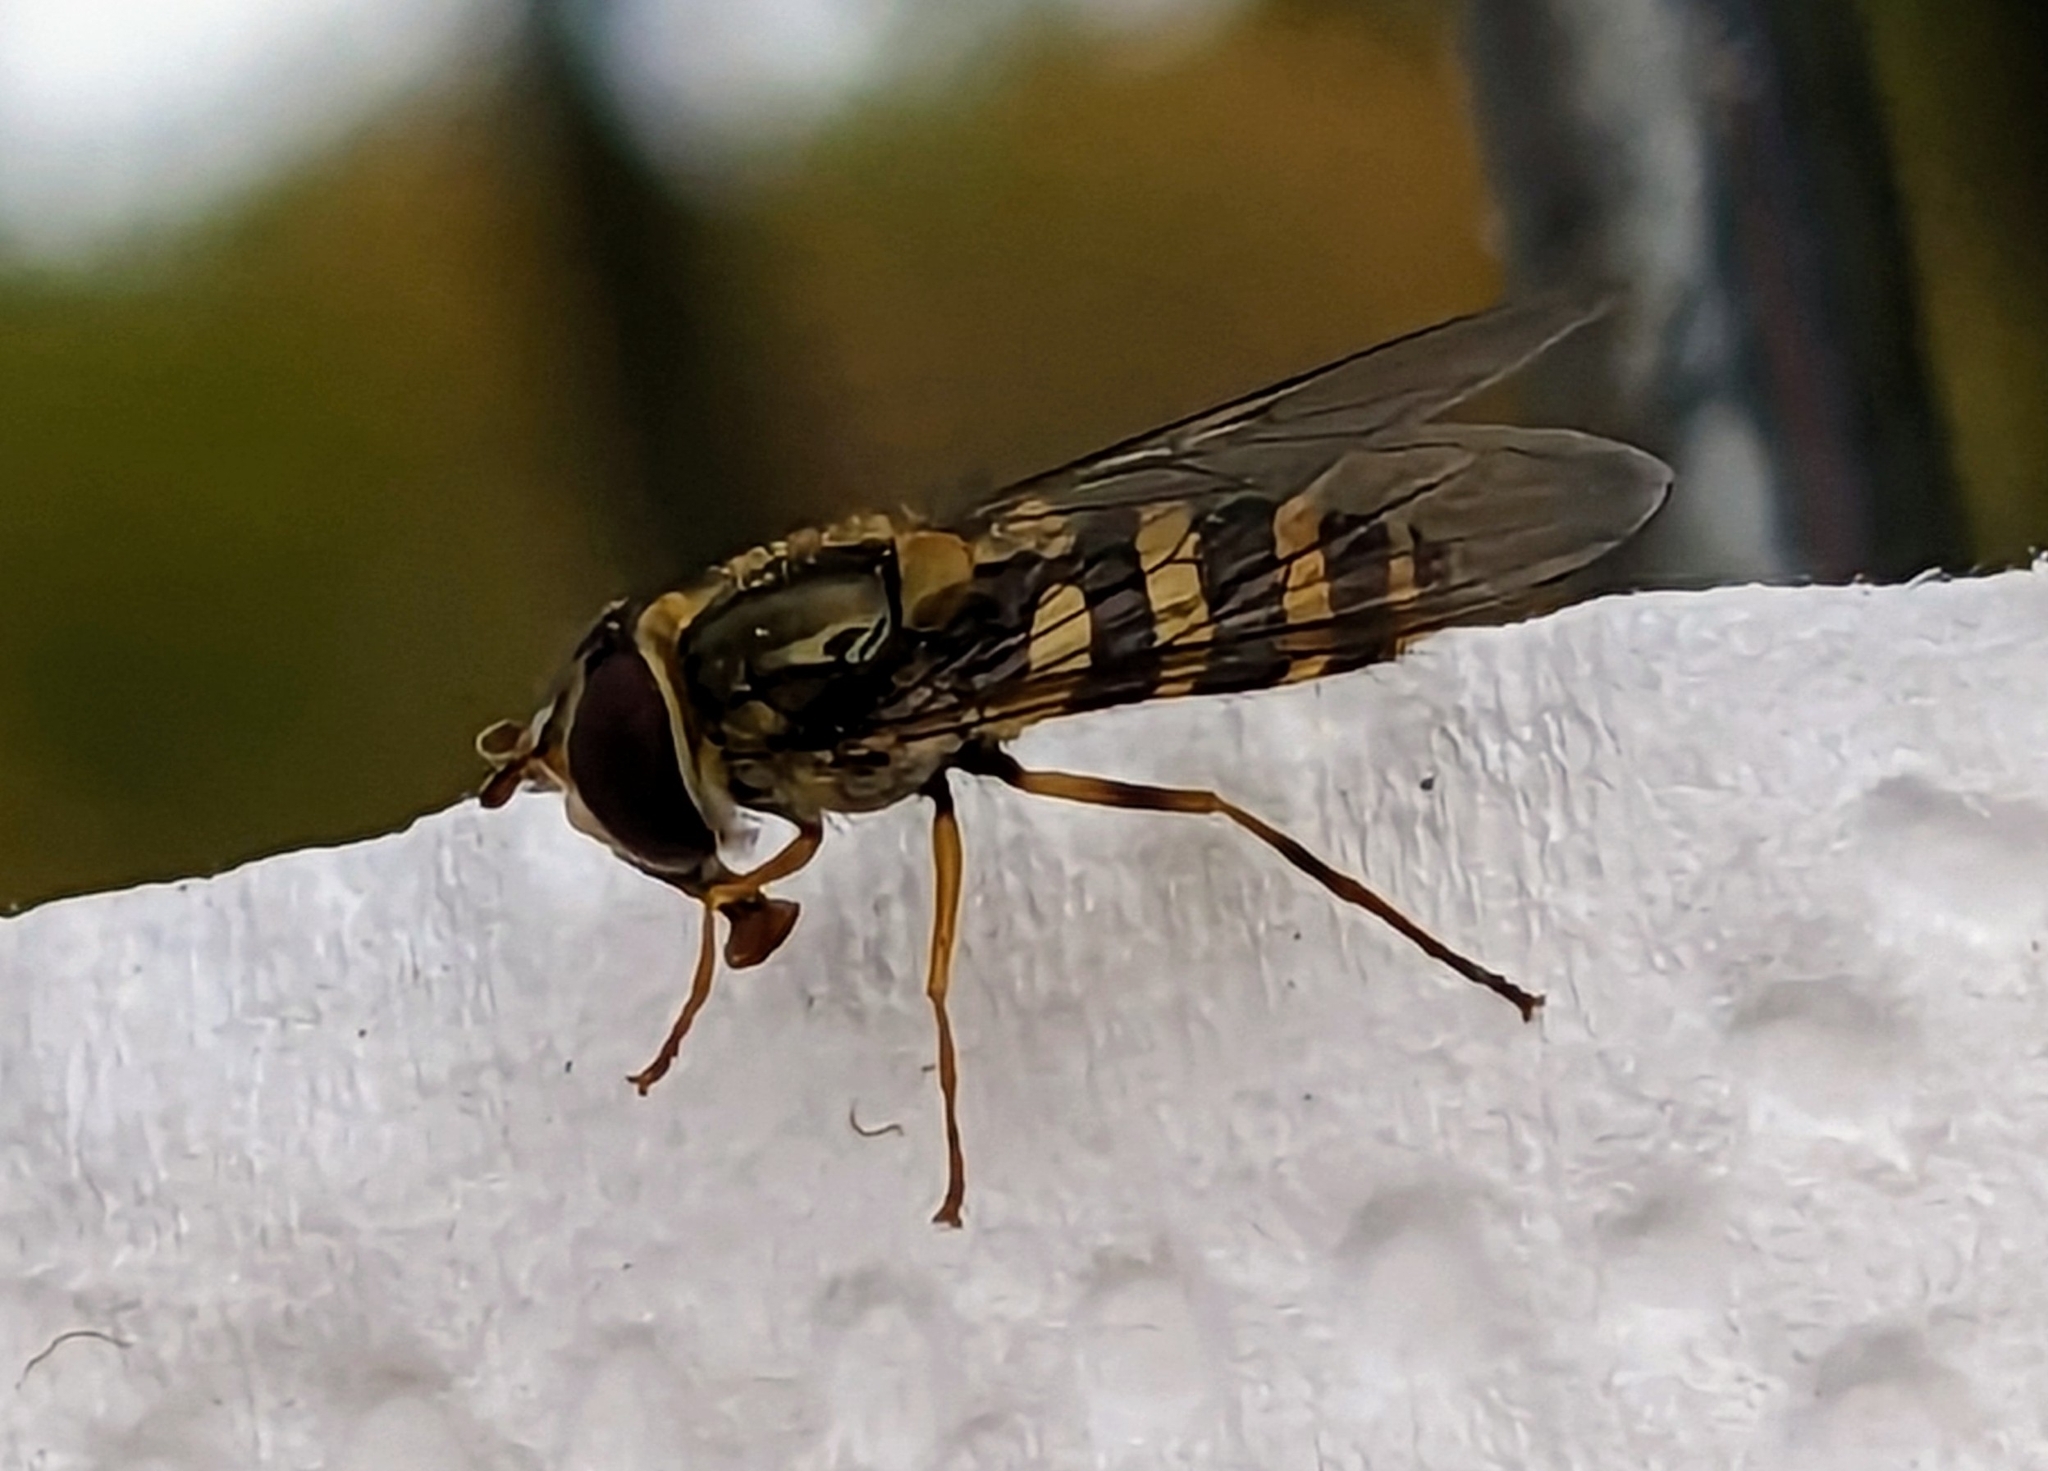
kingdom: Animalia
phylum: Arthropoda
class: Insecta
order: Diptera
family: Syrphidae
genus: Syrphus
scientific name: Syrphus rectus
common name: Yellow-legged flower fly
